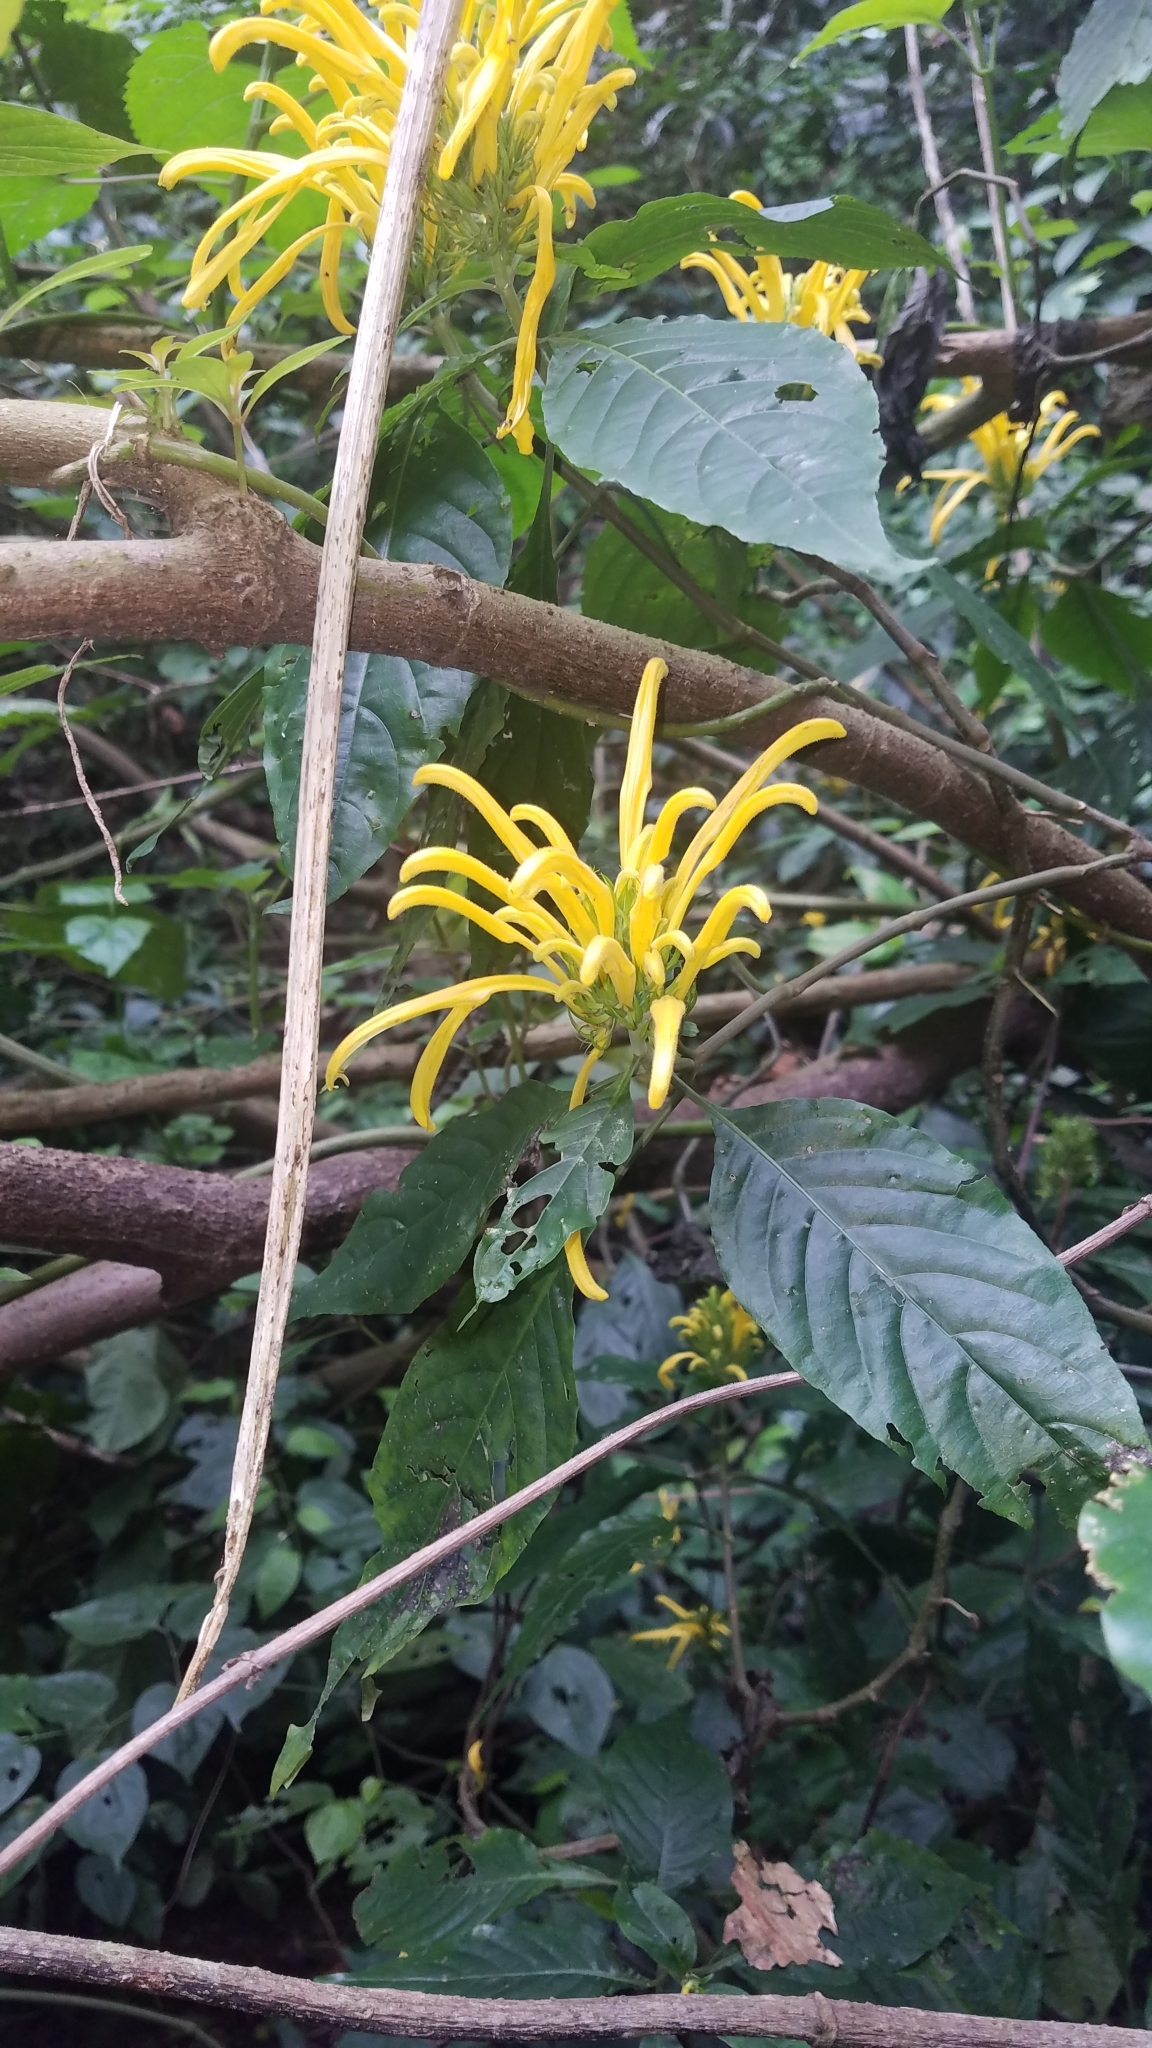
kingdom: Plantae
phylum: Tracheophyta
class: Magnoliopsida
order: Lamiales
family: Acanthaceae
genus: Justicia
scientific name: Justicia aurea
